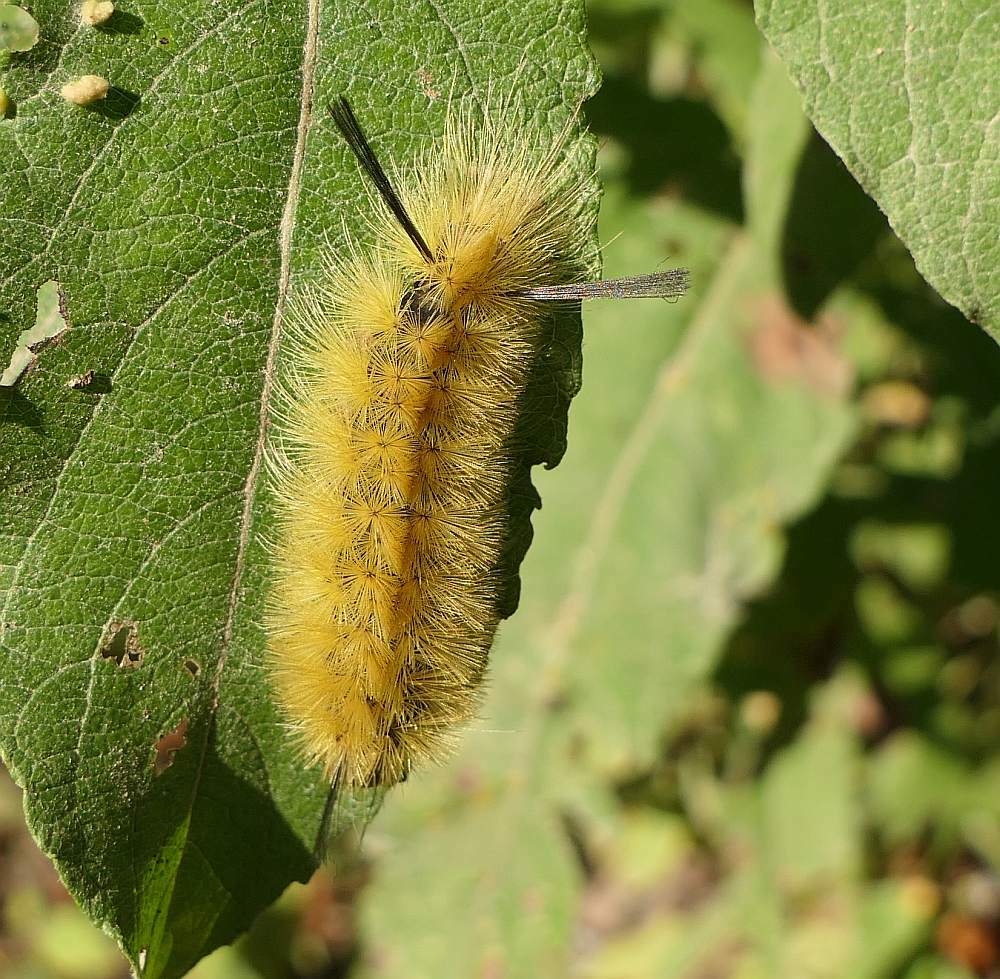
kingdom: Animalia
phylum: Arthropoda
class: Insecta
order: Lepidoptera
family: Erebidae
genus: Halysidota
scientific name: Halysidota tessellaris
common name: Banded tussock moth
